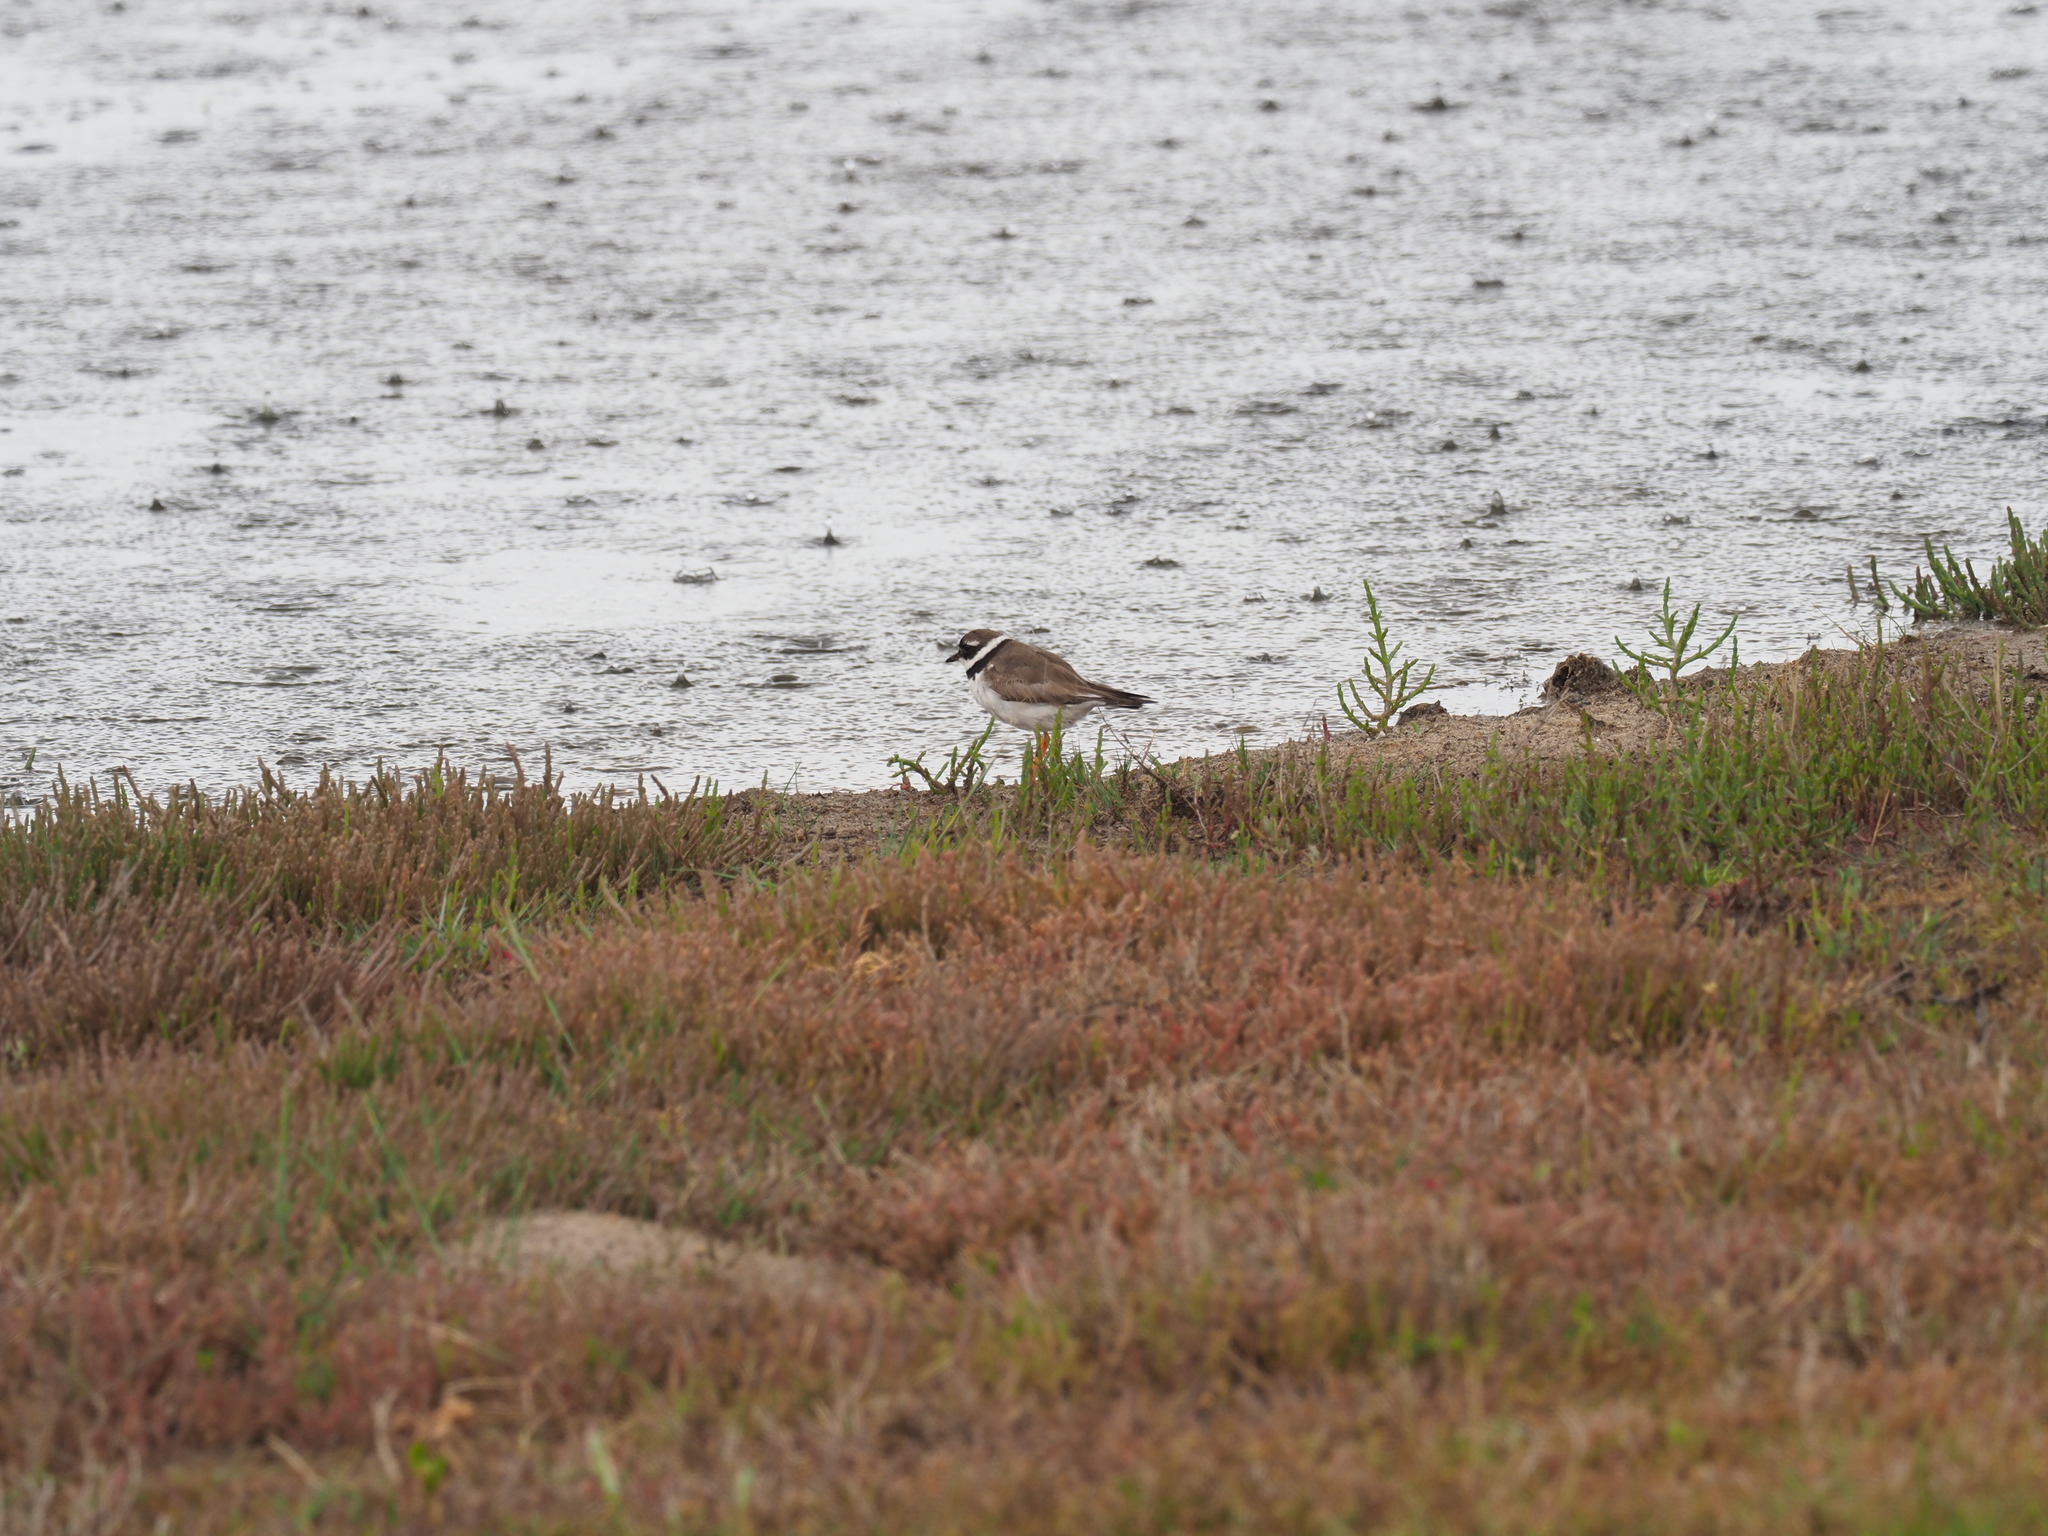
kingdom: Animalia
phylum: Chordata
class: Aves
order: Charadriiformes
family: Charadriidae
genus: Charadrius
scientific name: Charadrius hiaticula
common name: Common ringed plover
